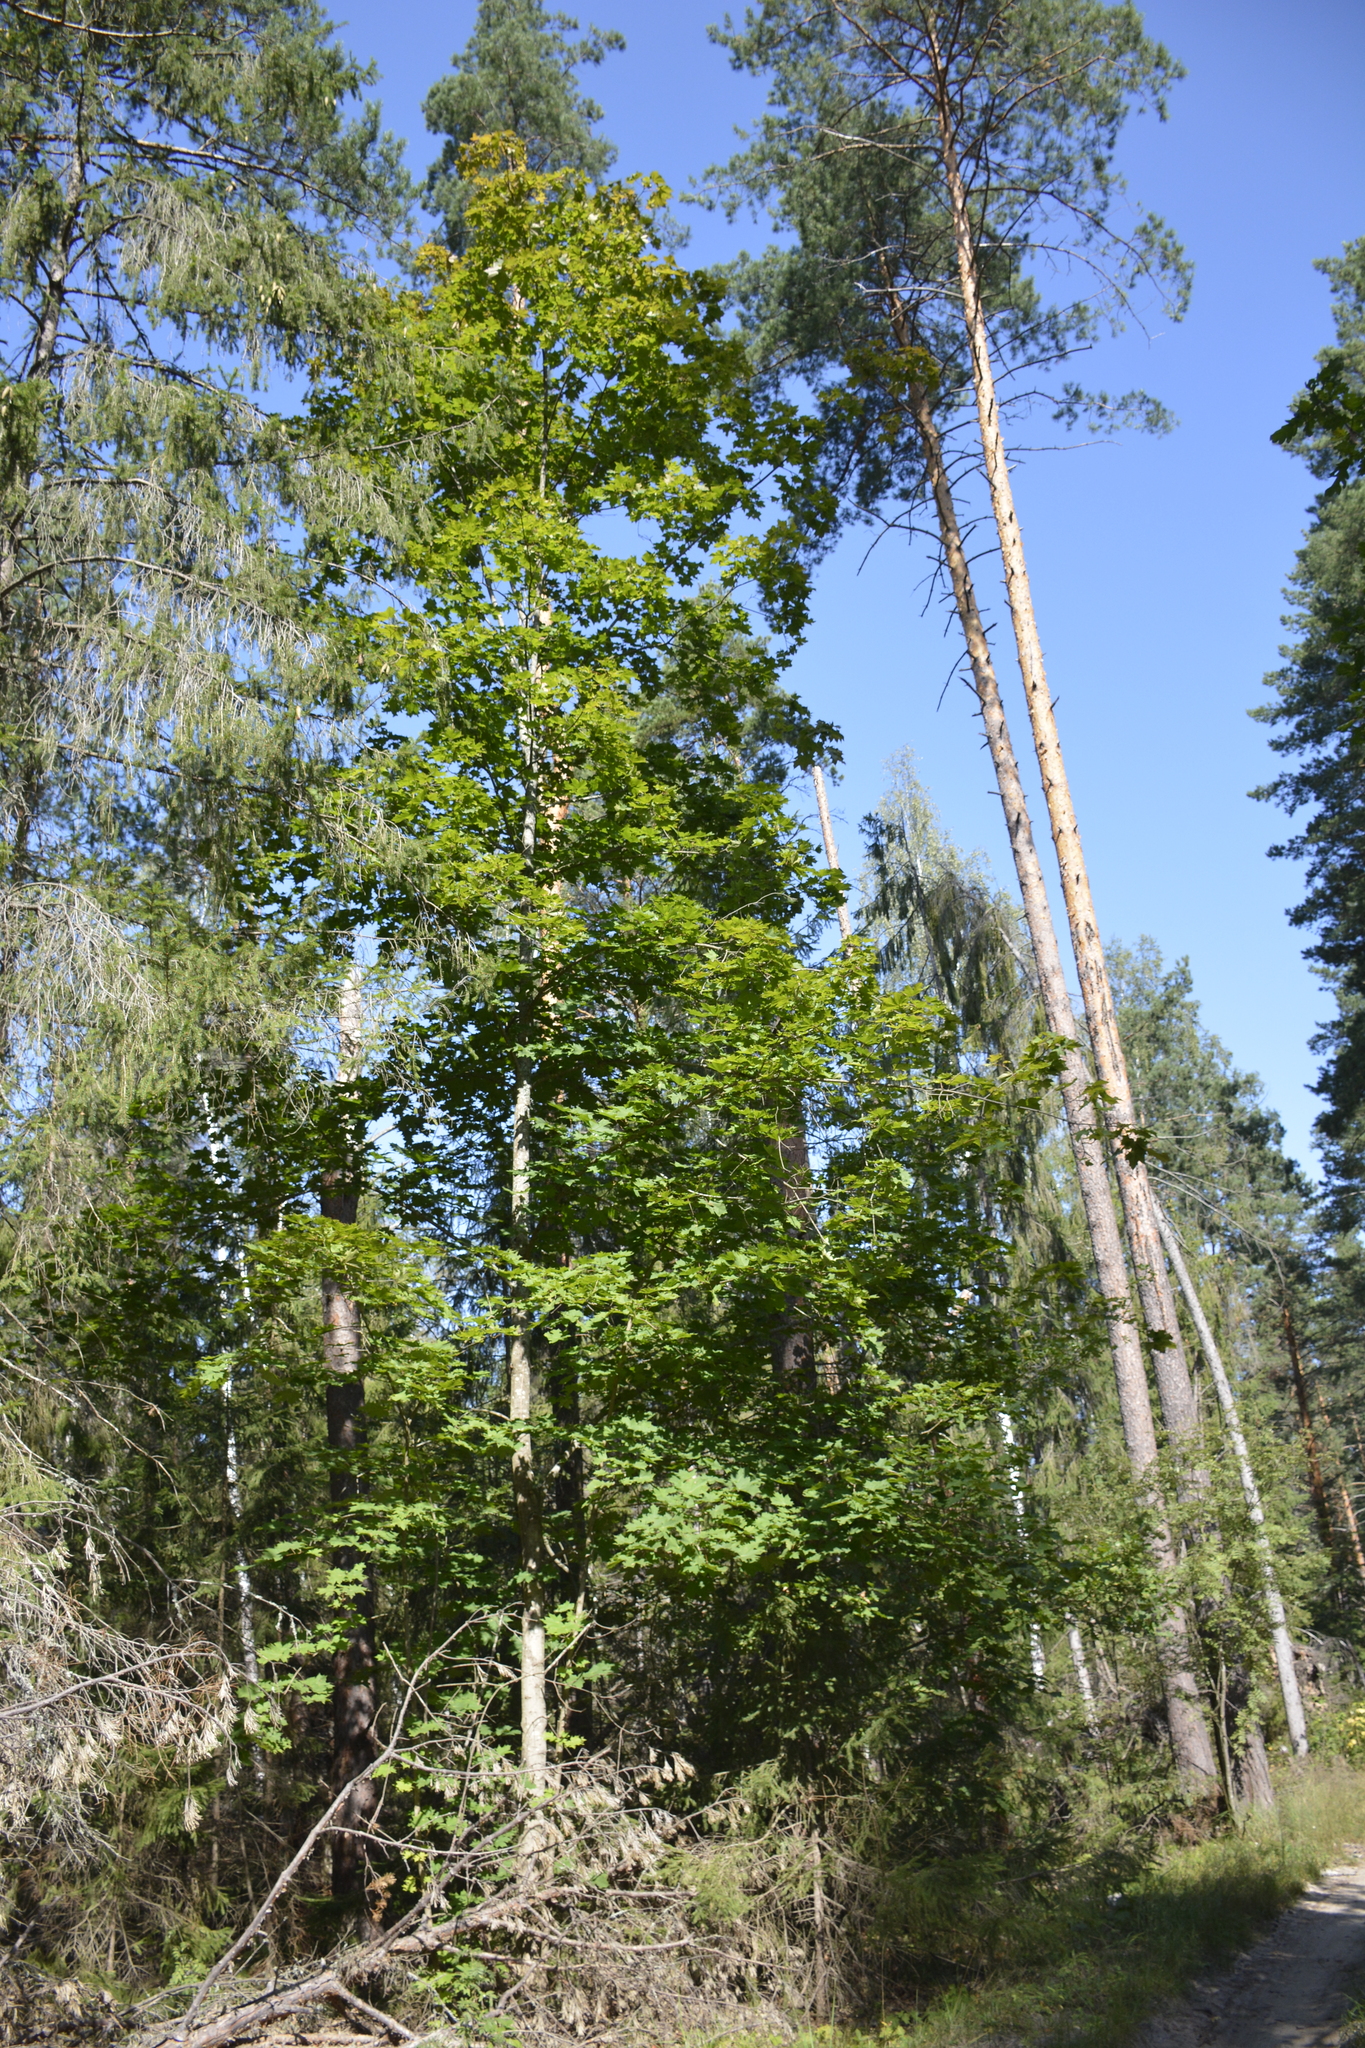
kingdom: Plantae
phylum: Tracheophyta
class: Magnoliopsida
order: Sapindales
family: Sapindaceae
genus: Acer
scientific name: Acer platanoides
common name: Norway maple
